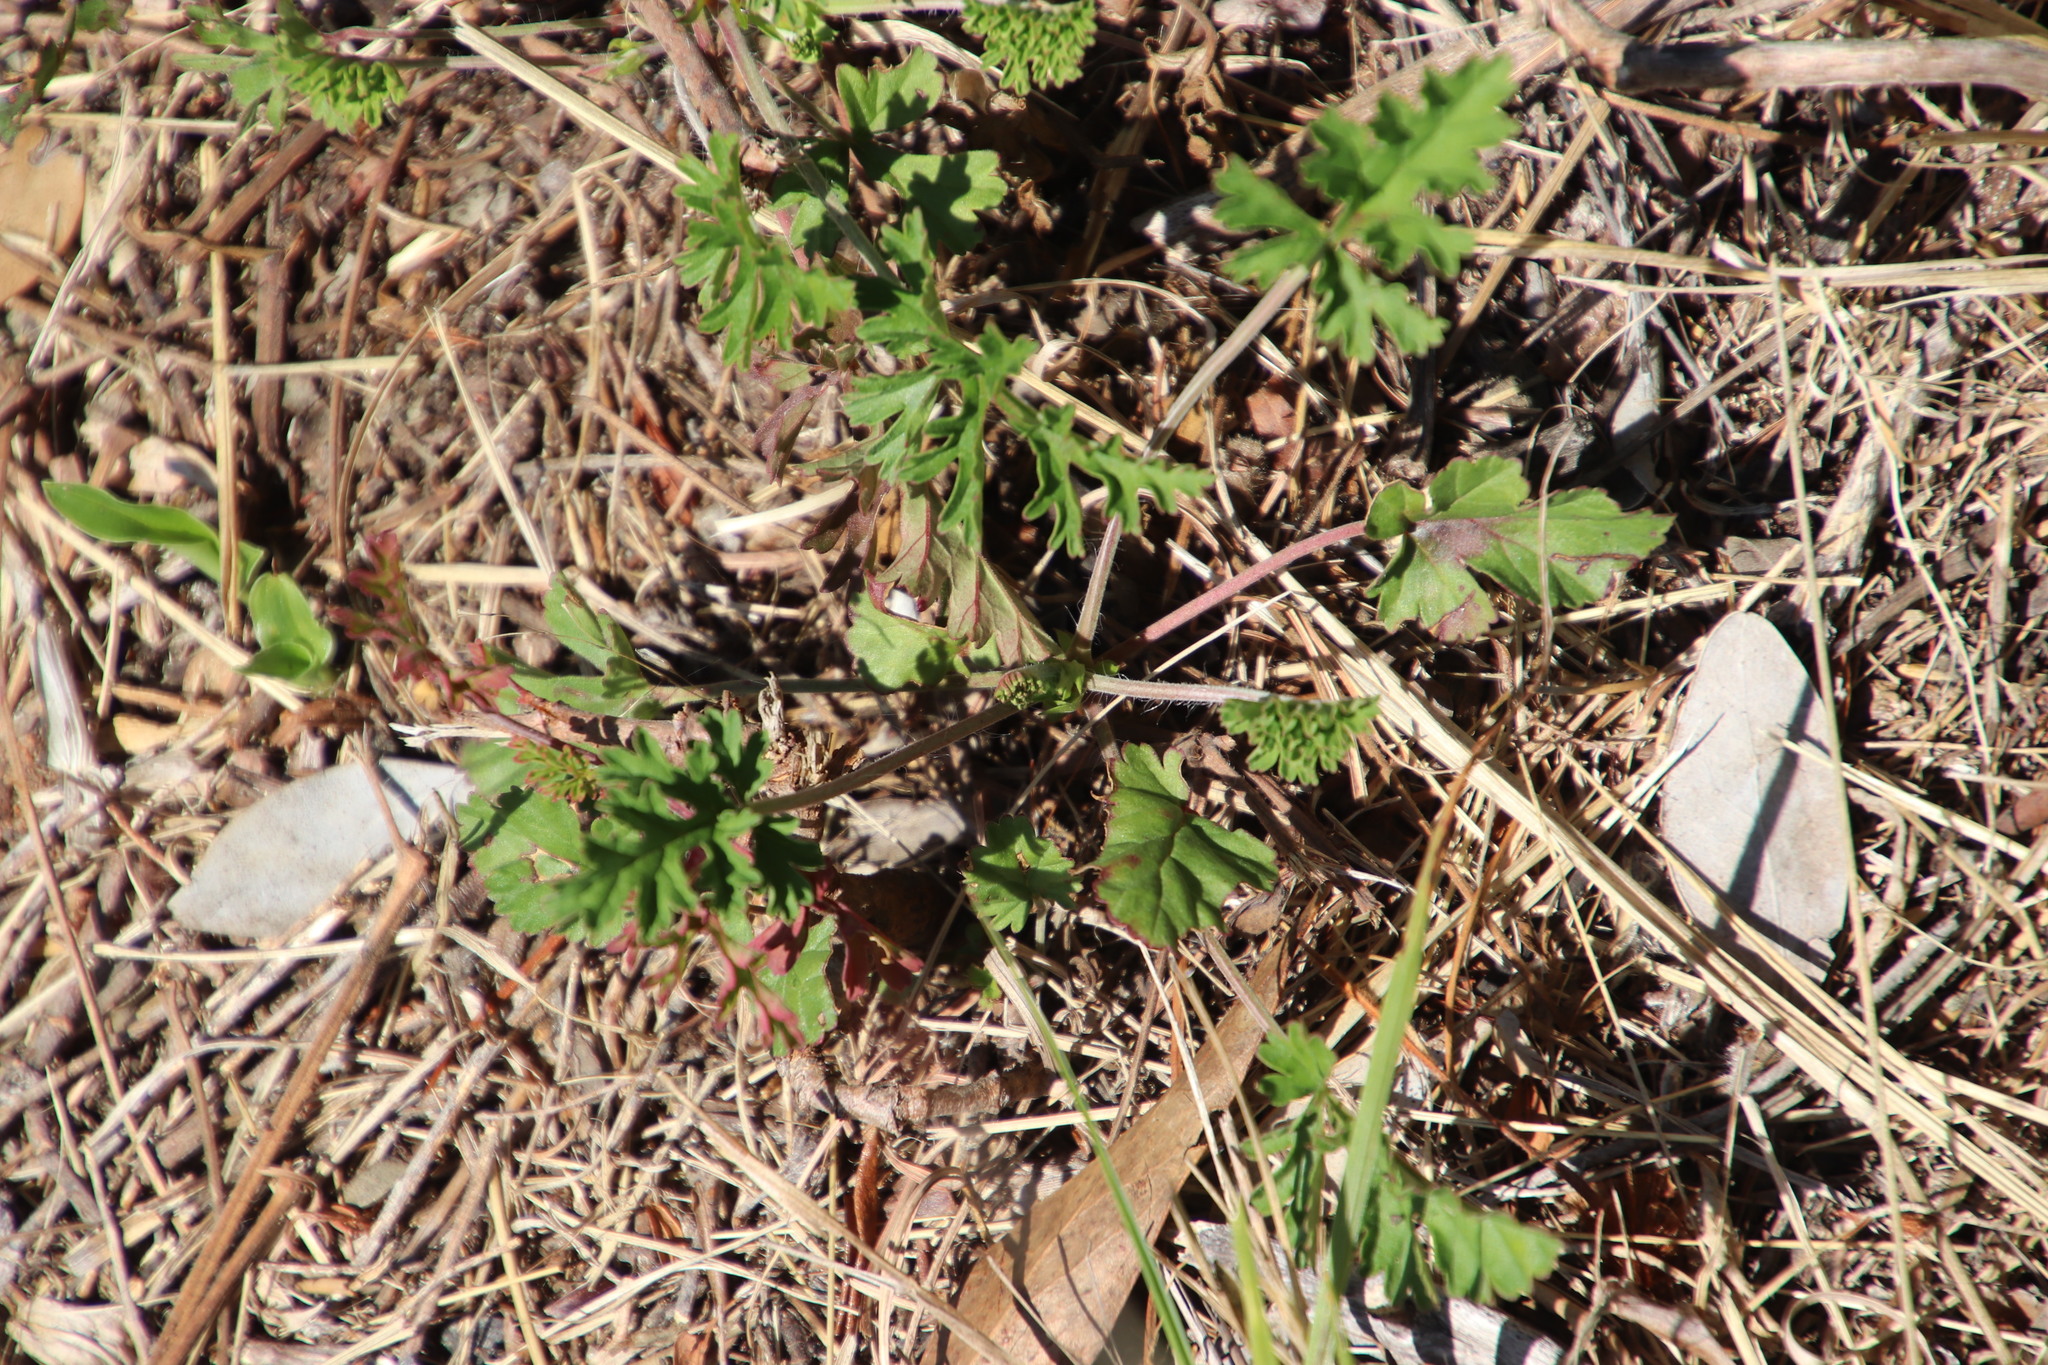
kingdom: Plantae
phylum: Tracheophyta
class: Magnoliopsida
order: Geraniales
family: Geraniaceae
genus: Pelargonium
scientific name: Pelargonium myrrhifolium
